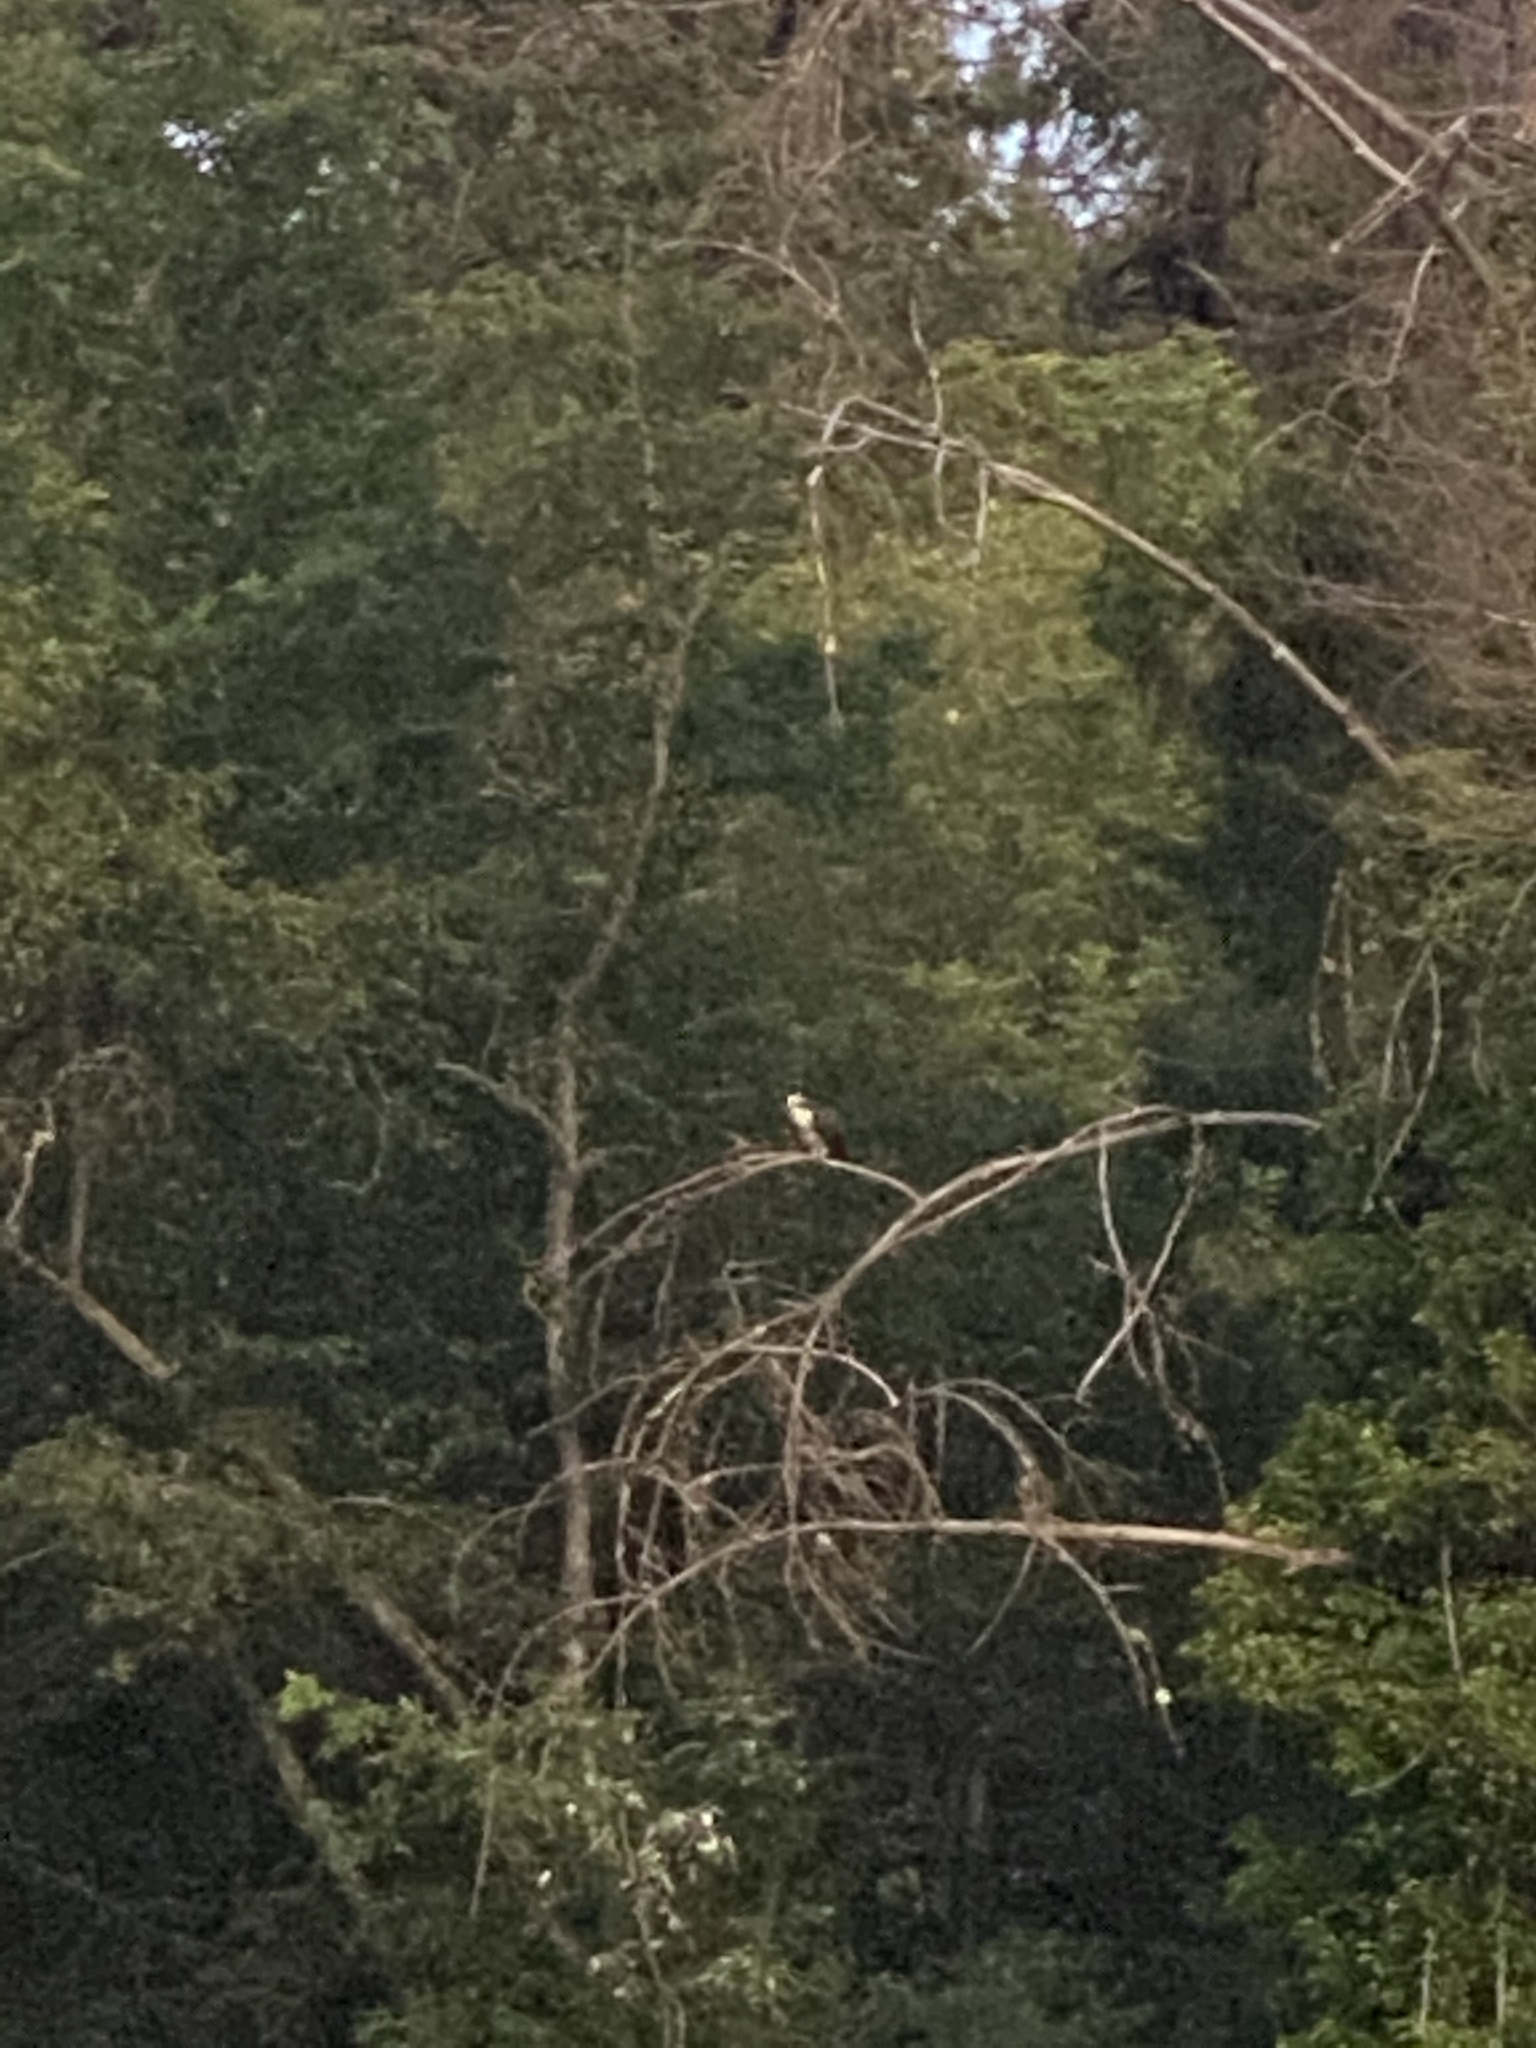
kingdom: Animalia
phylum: Chordata
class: Aves
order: Accipitriformes
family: Pandionidae
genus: Pandion
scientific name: Pandion haliaetus
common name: Osprey
